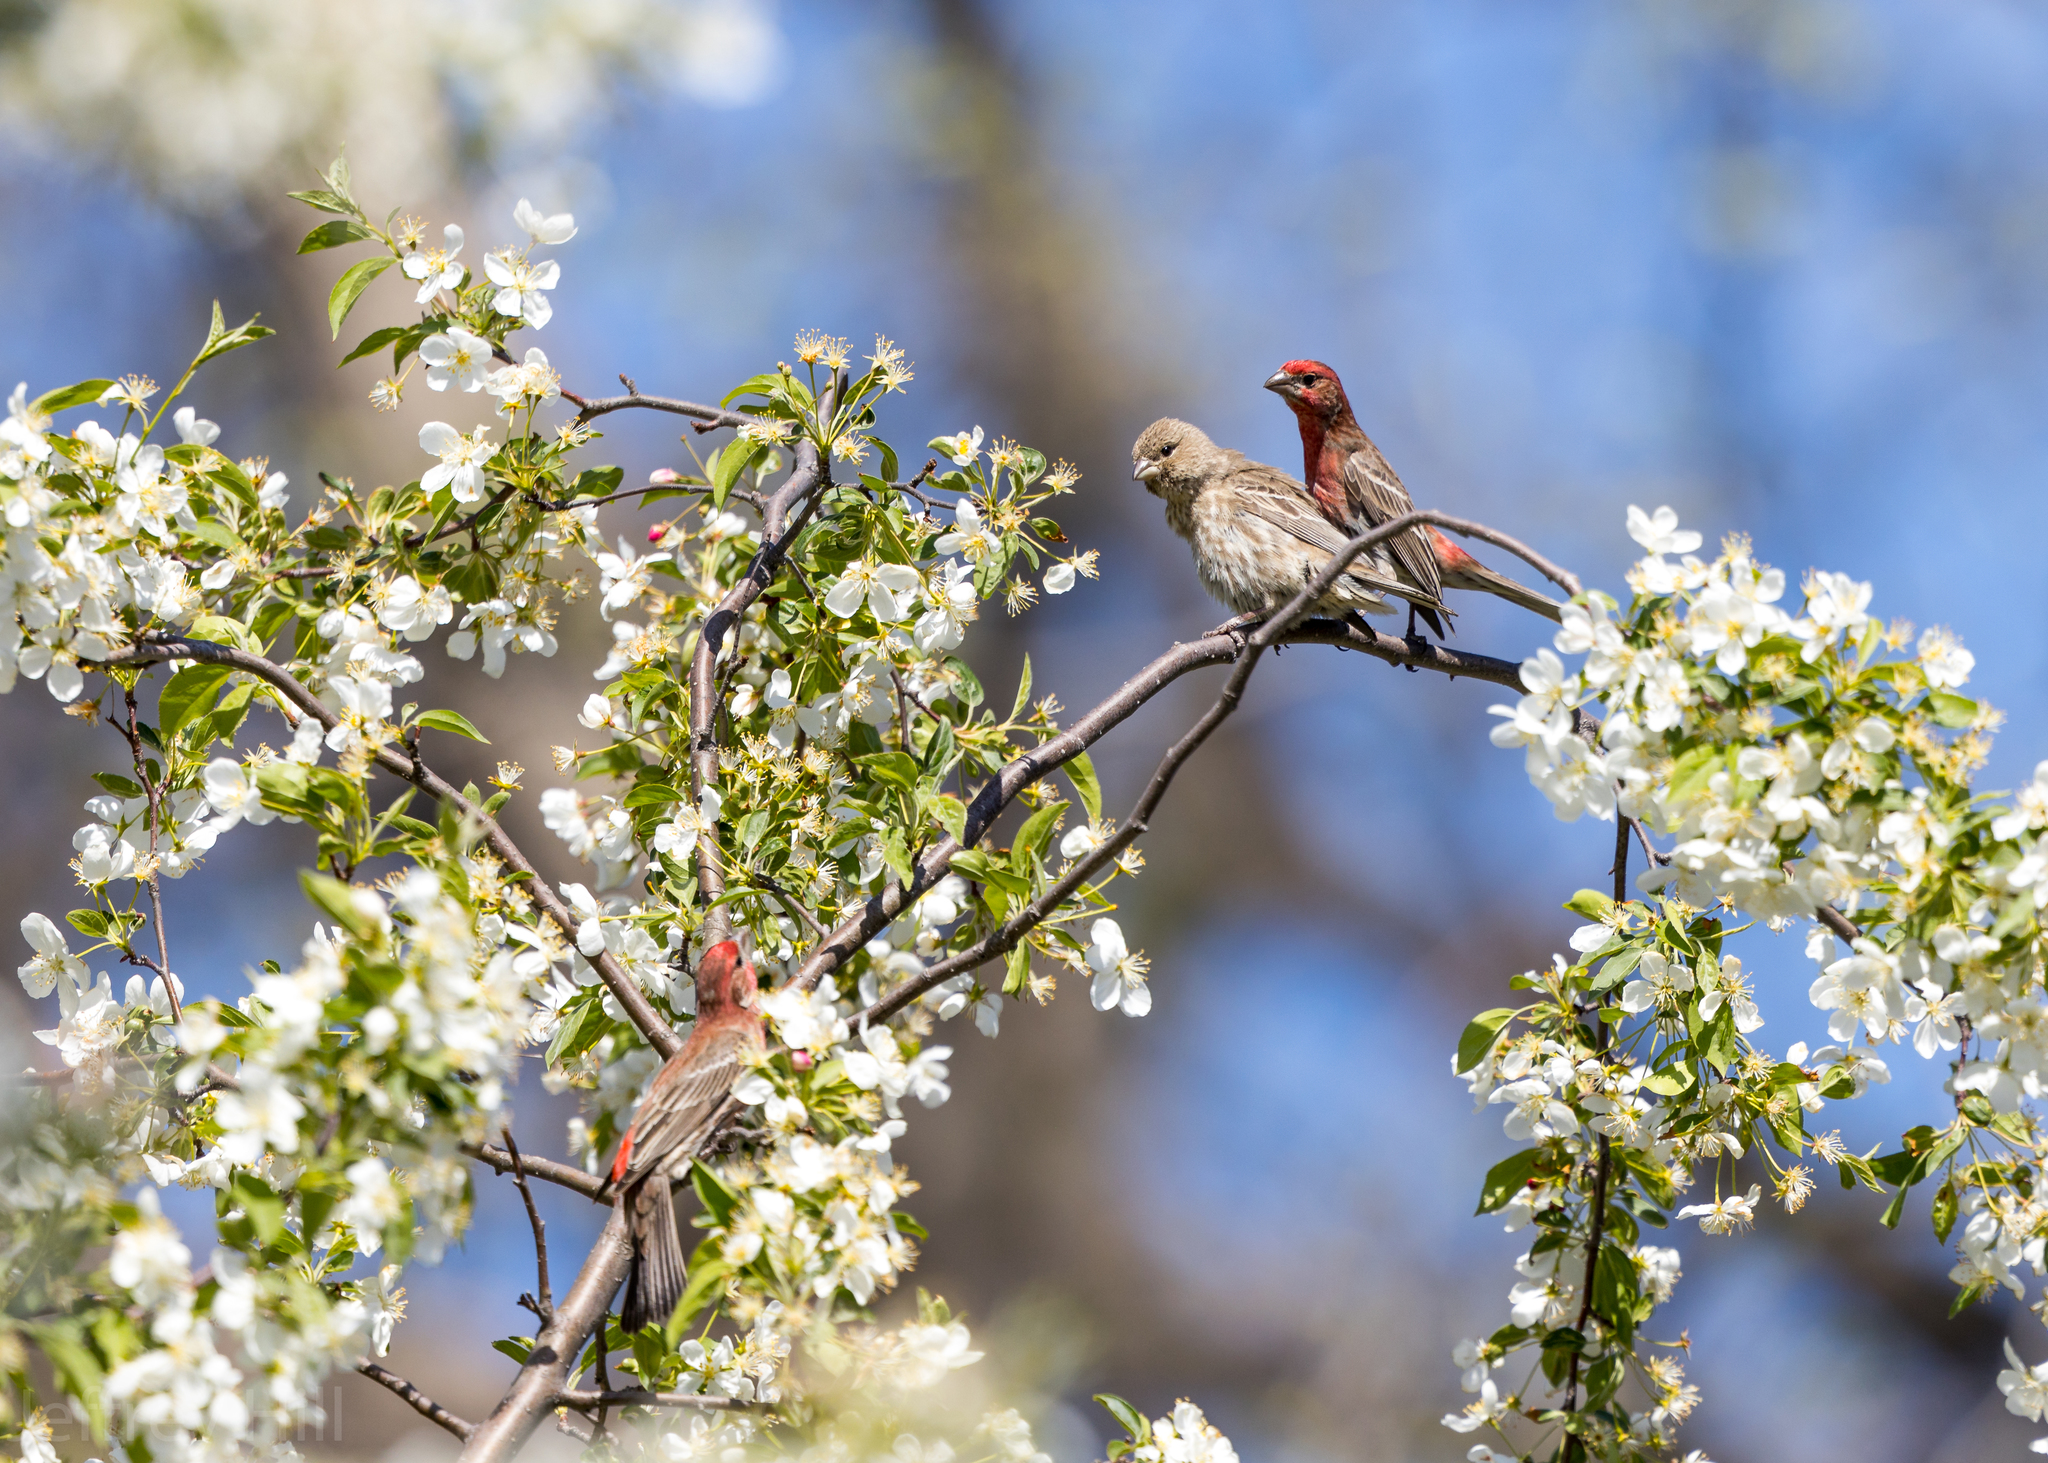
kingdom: Animalia
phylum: Chordata
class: Aves
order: Passeriformes
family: Fringillidae
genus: Haemorhous
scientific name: Haemorhous mexicanus
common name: House finch
